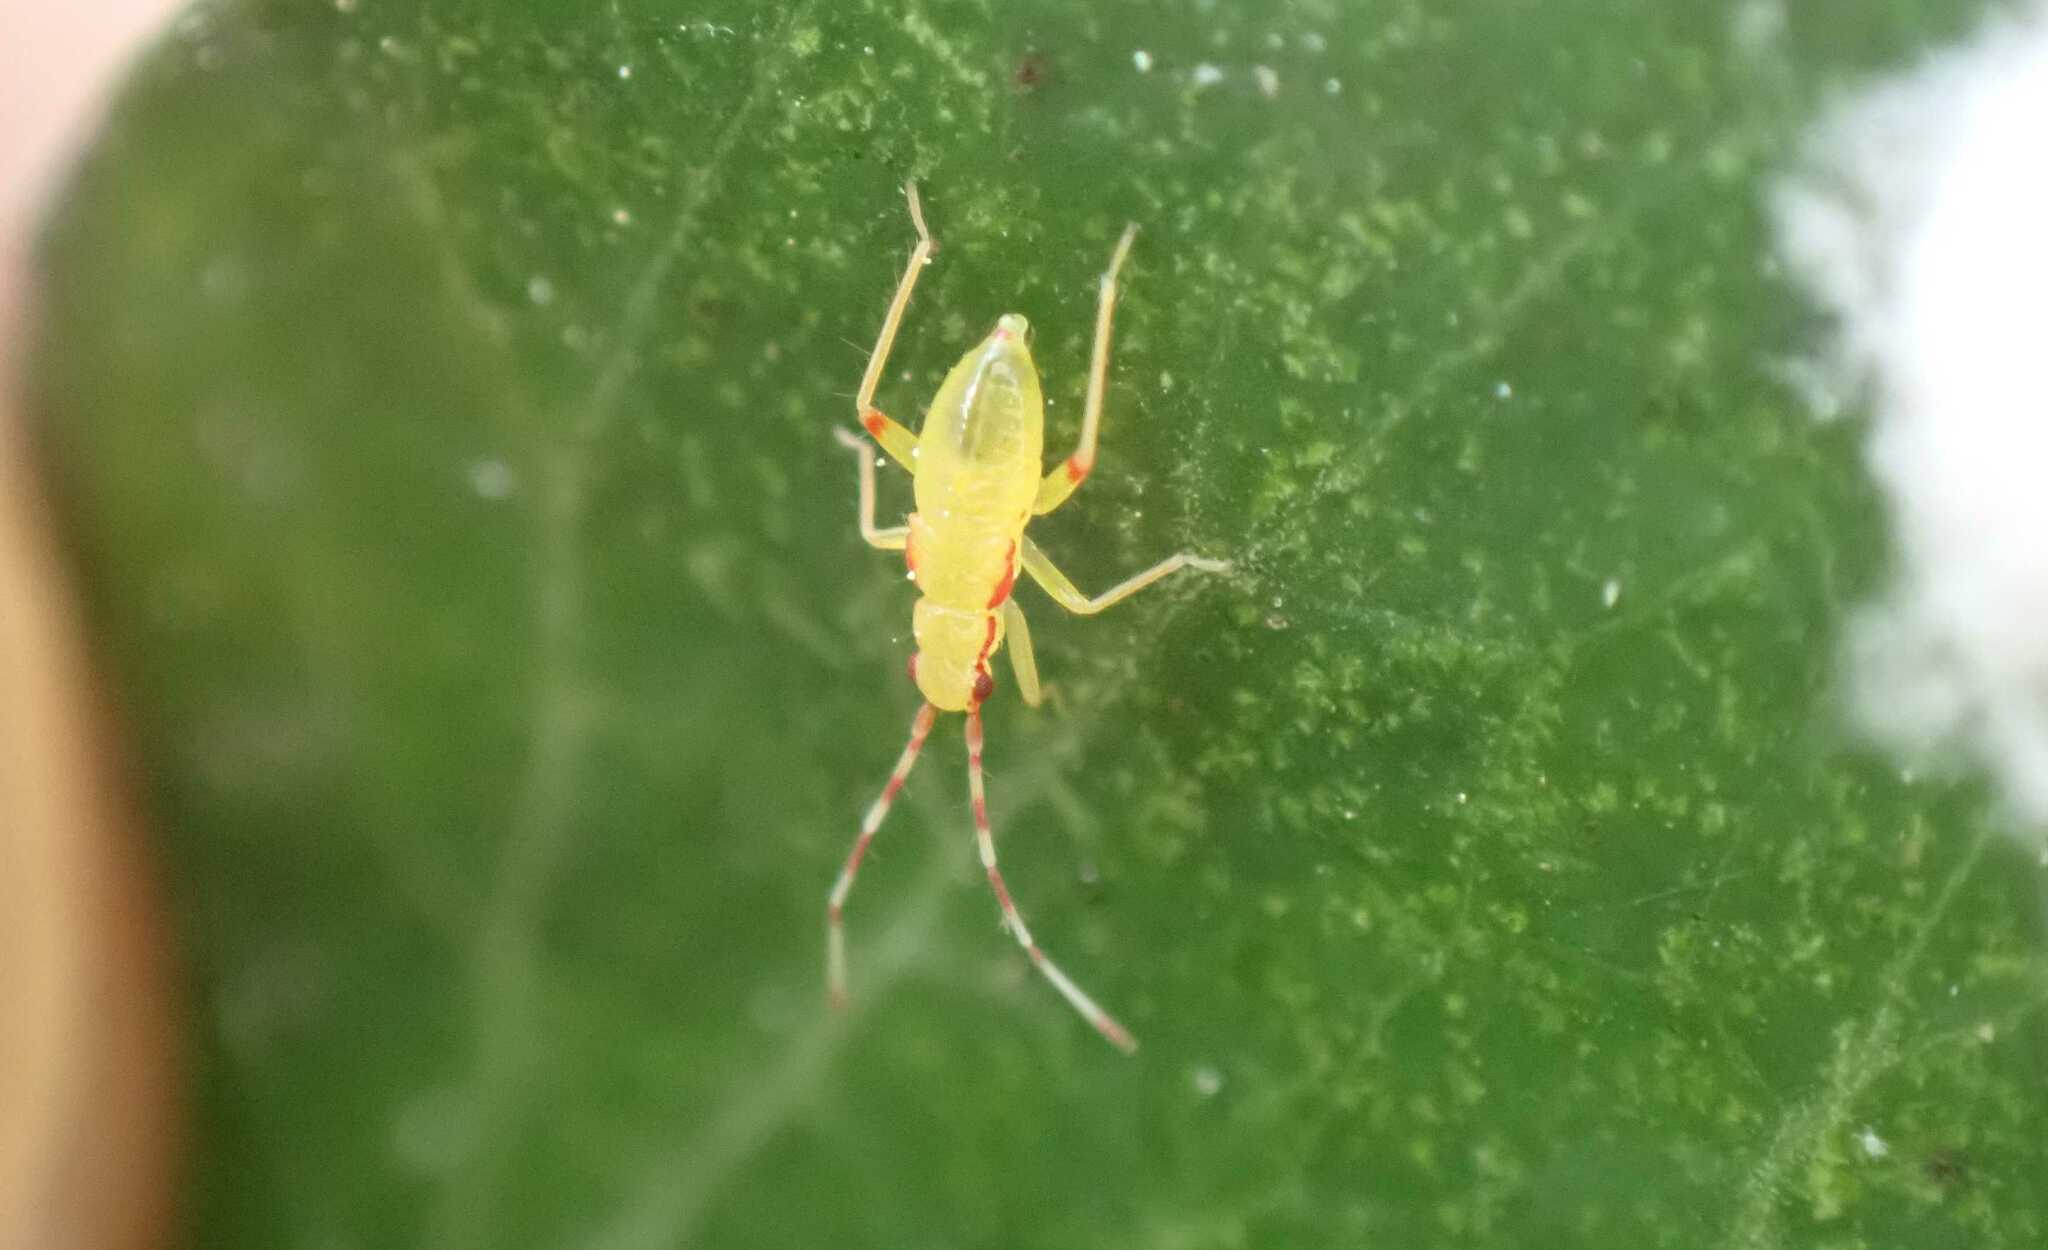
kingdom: Animalia
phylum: Arthropoda
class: Insecta
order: Hemiptera
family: Miridae
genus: Campyloneura
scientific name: Campyloneura virgula
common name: Predatory bug
